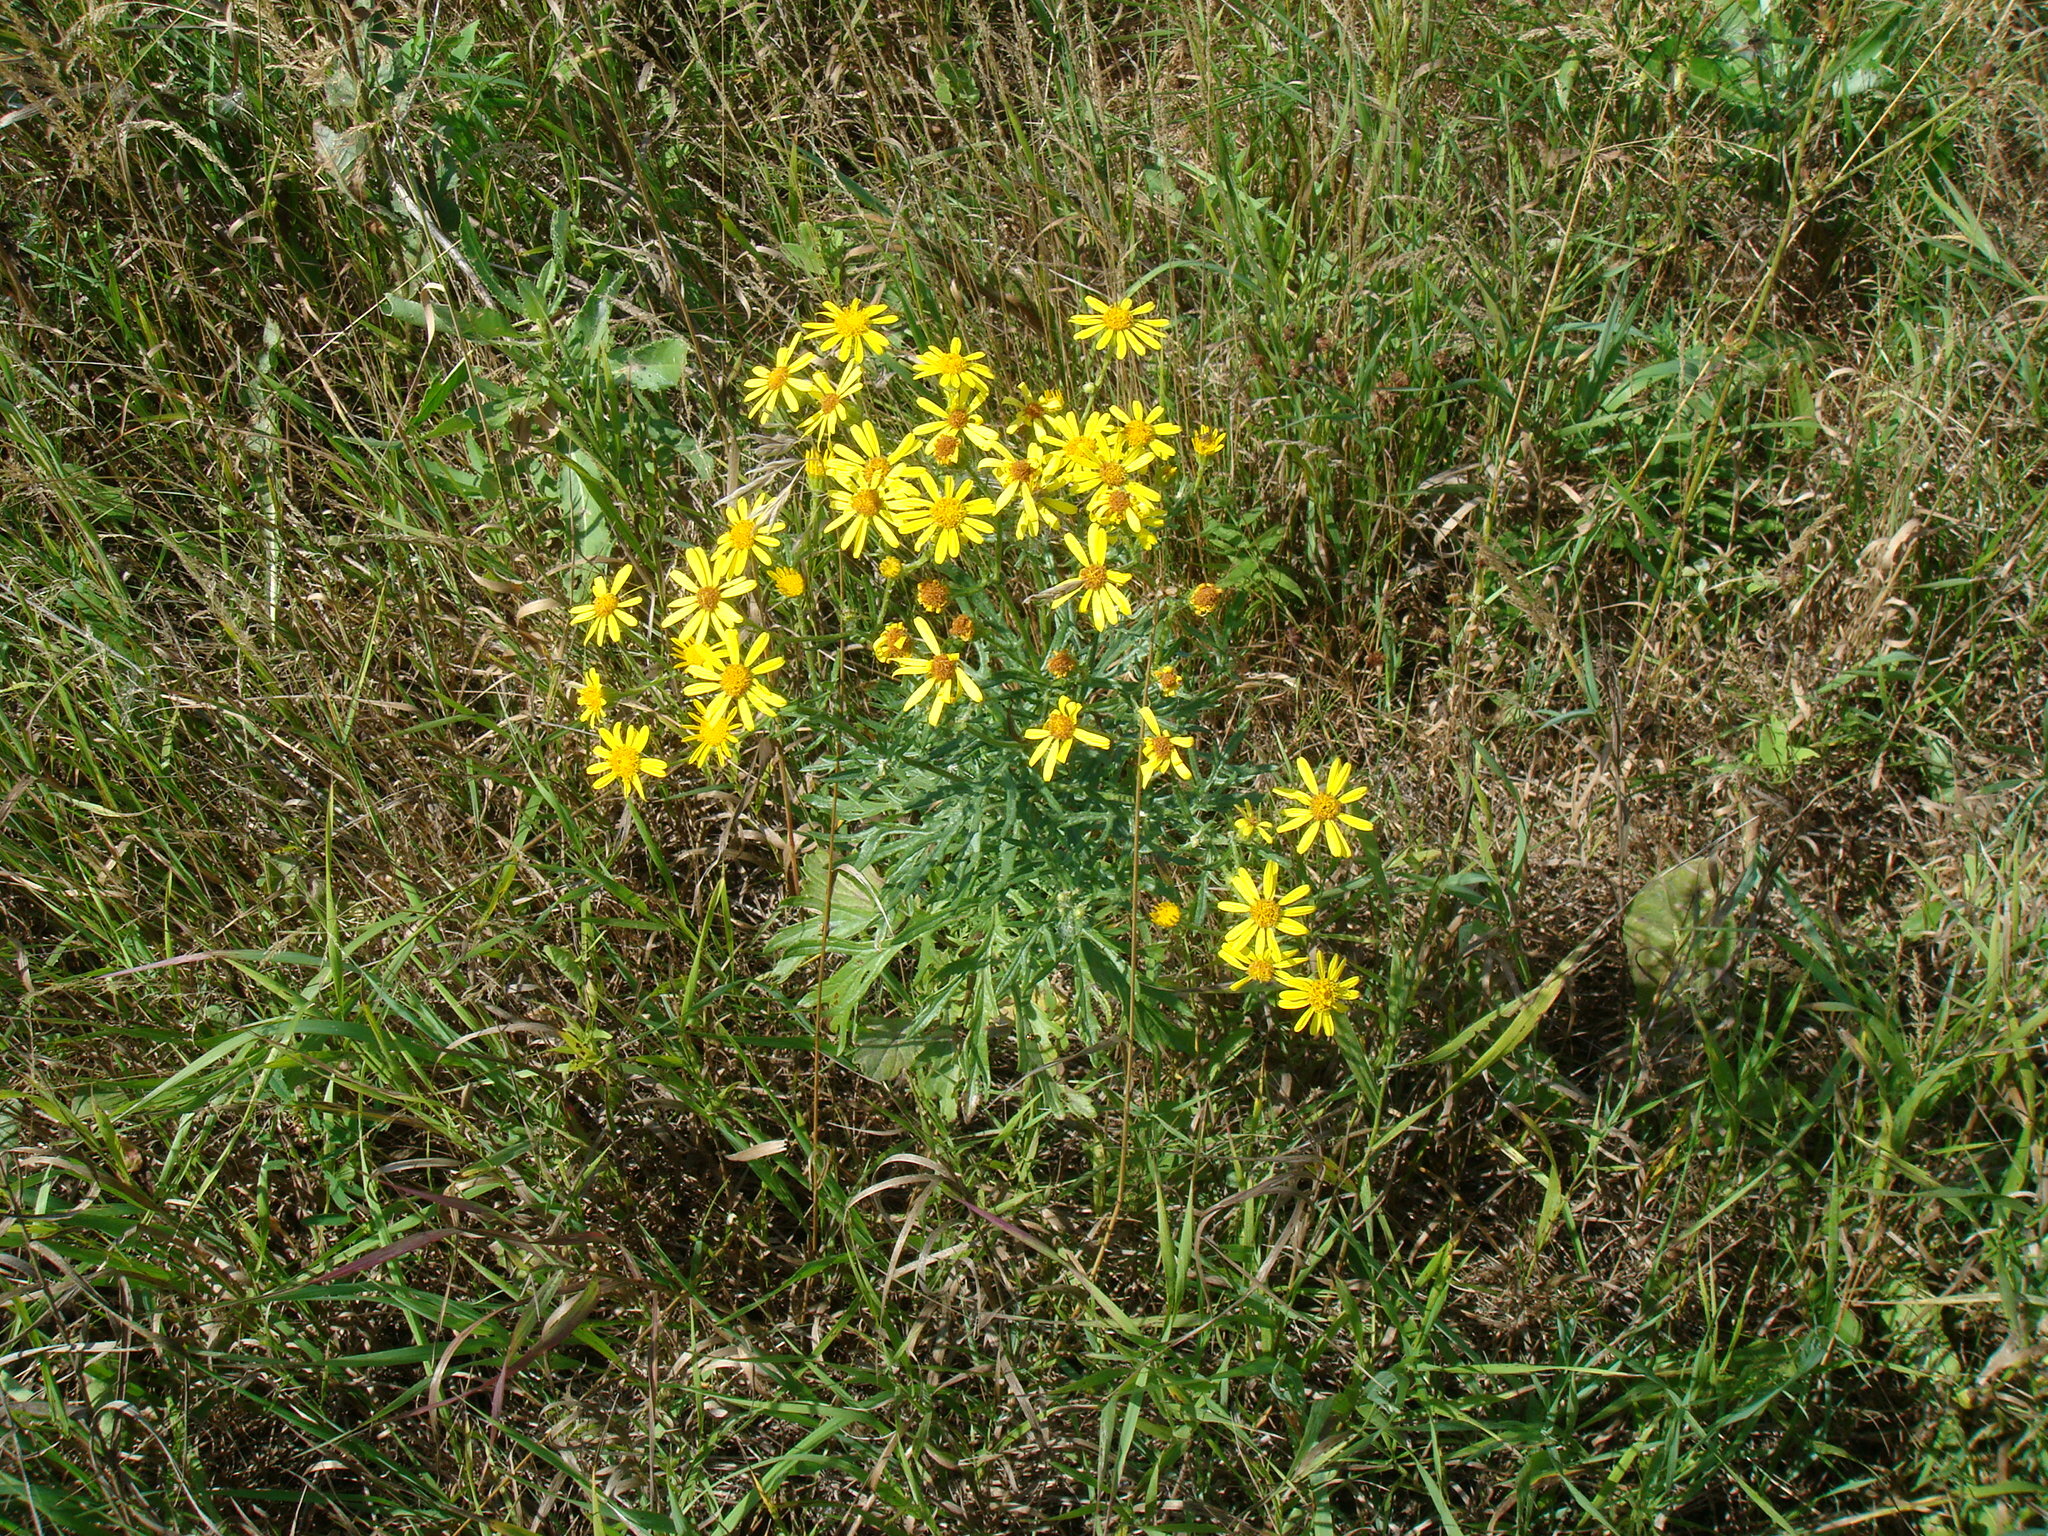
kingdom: Plantae
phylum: Tracheophyta
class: Magnoliopsida
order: Asterales
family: Asteraceae
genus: Jacobaea
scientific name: Jacobaea erucifolia
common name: Hoary ragwort
